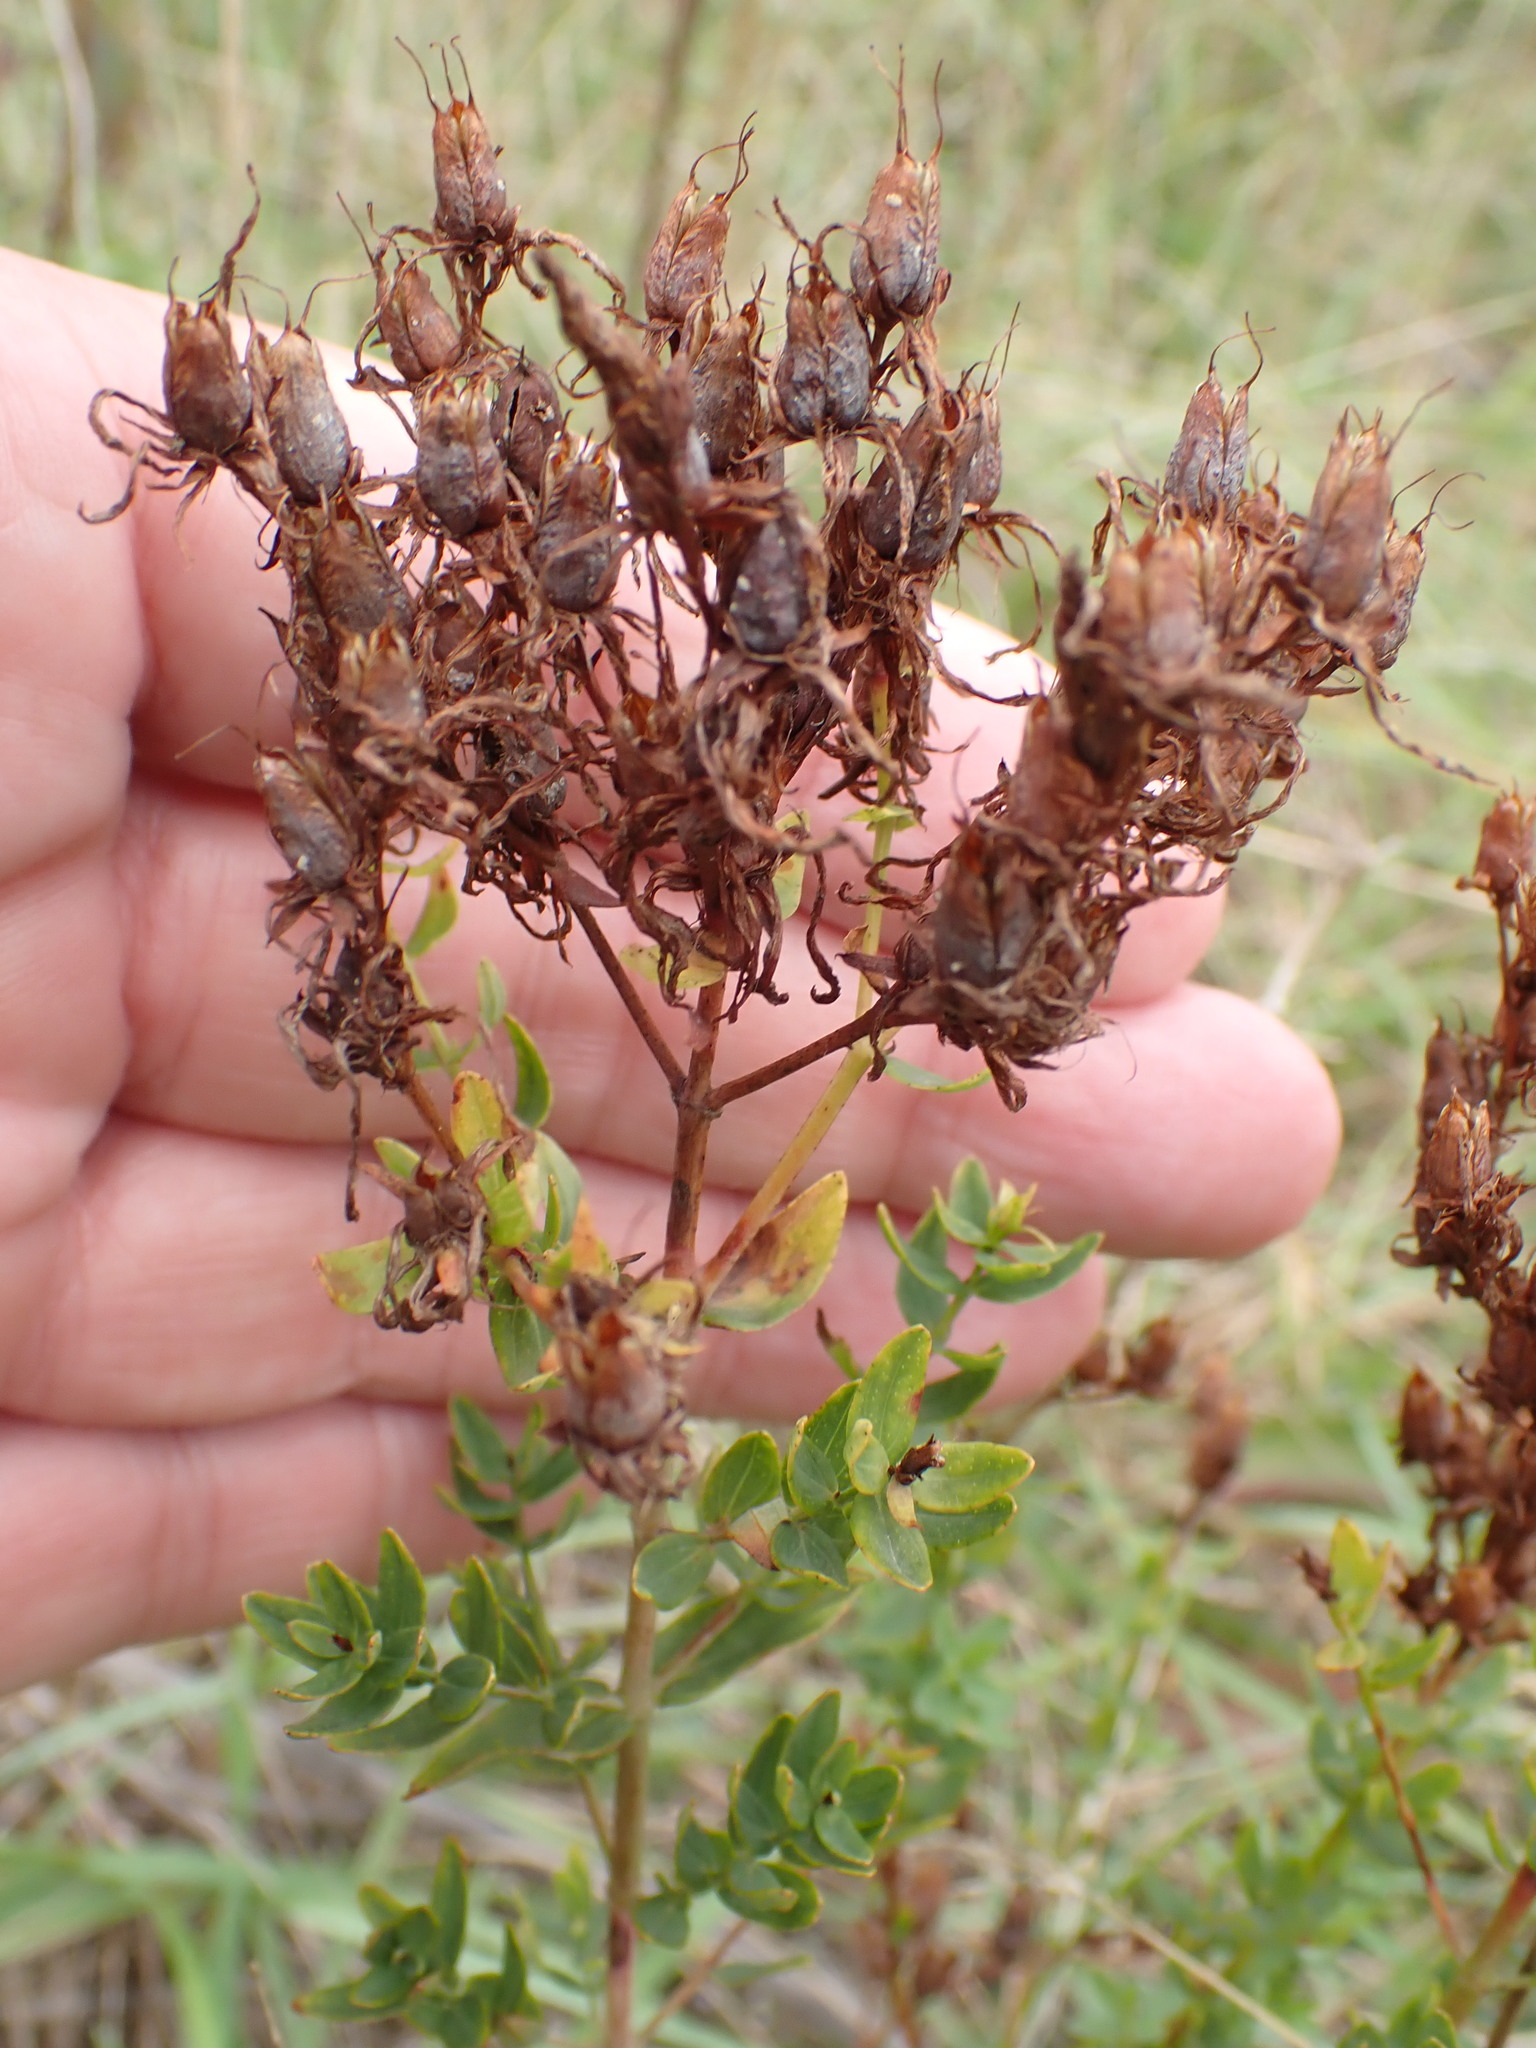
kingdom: Plantae
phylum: Tracheophyta
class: Magnoliopsida
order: Malpighiales
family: Hypericaceae
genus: Hypericum
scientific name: Hypericum perforatum
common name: Common st. johnswort
